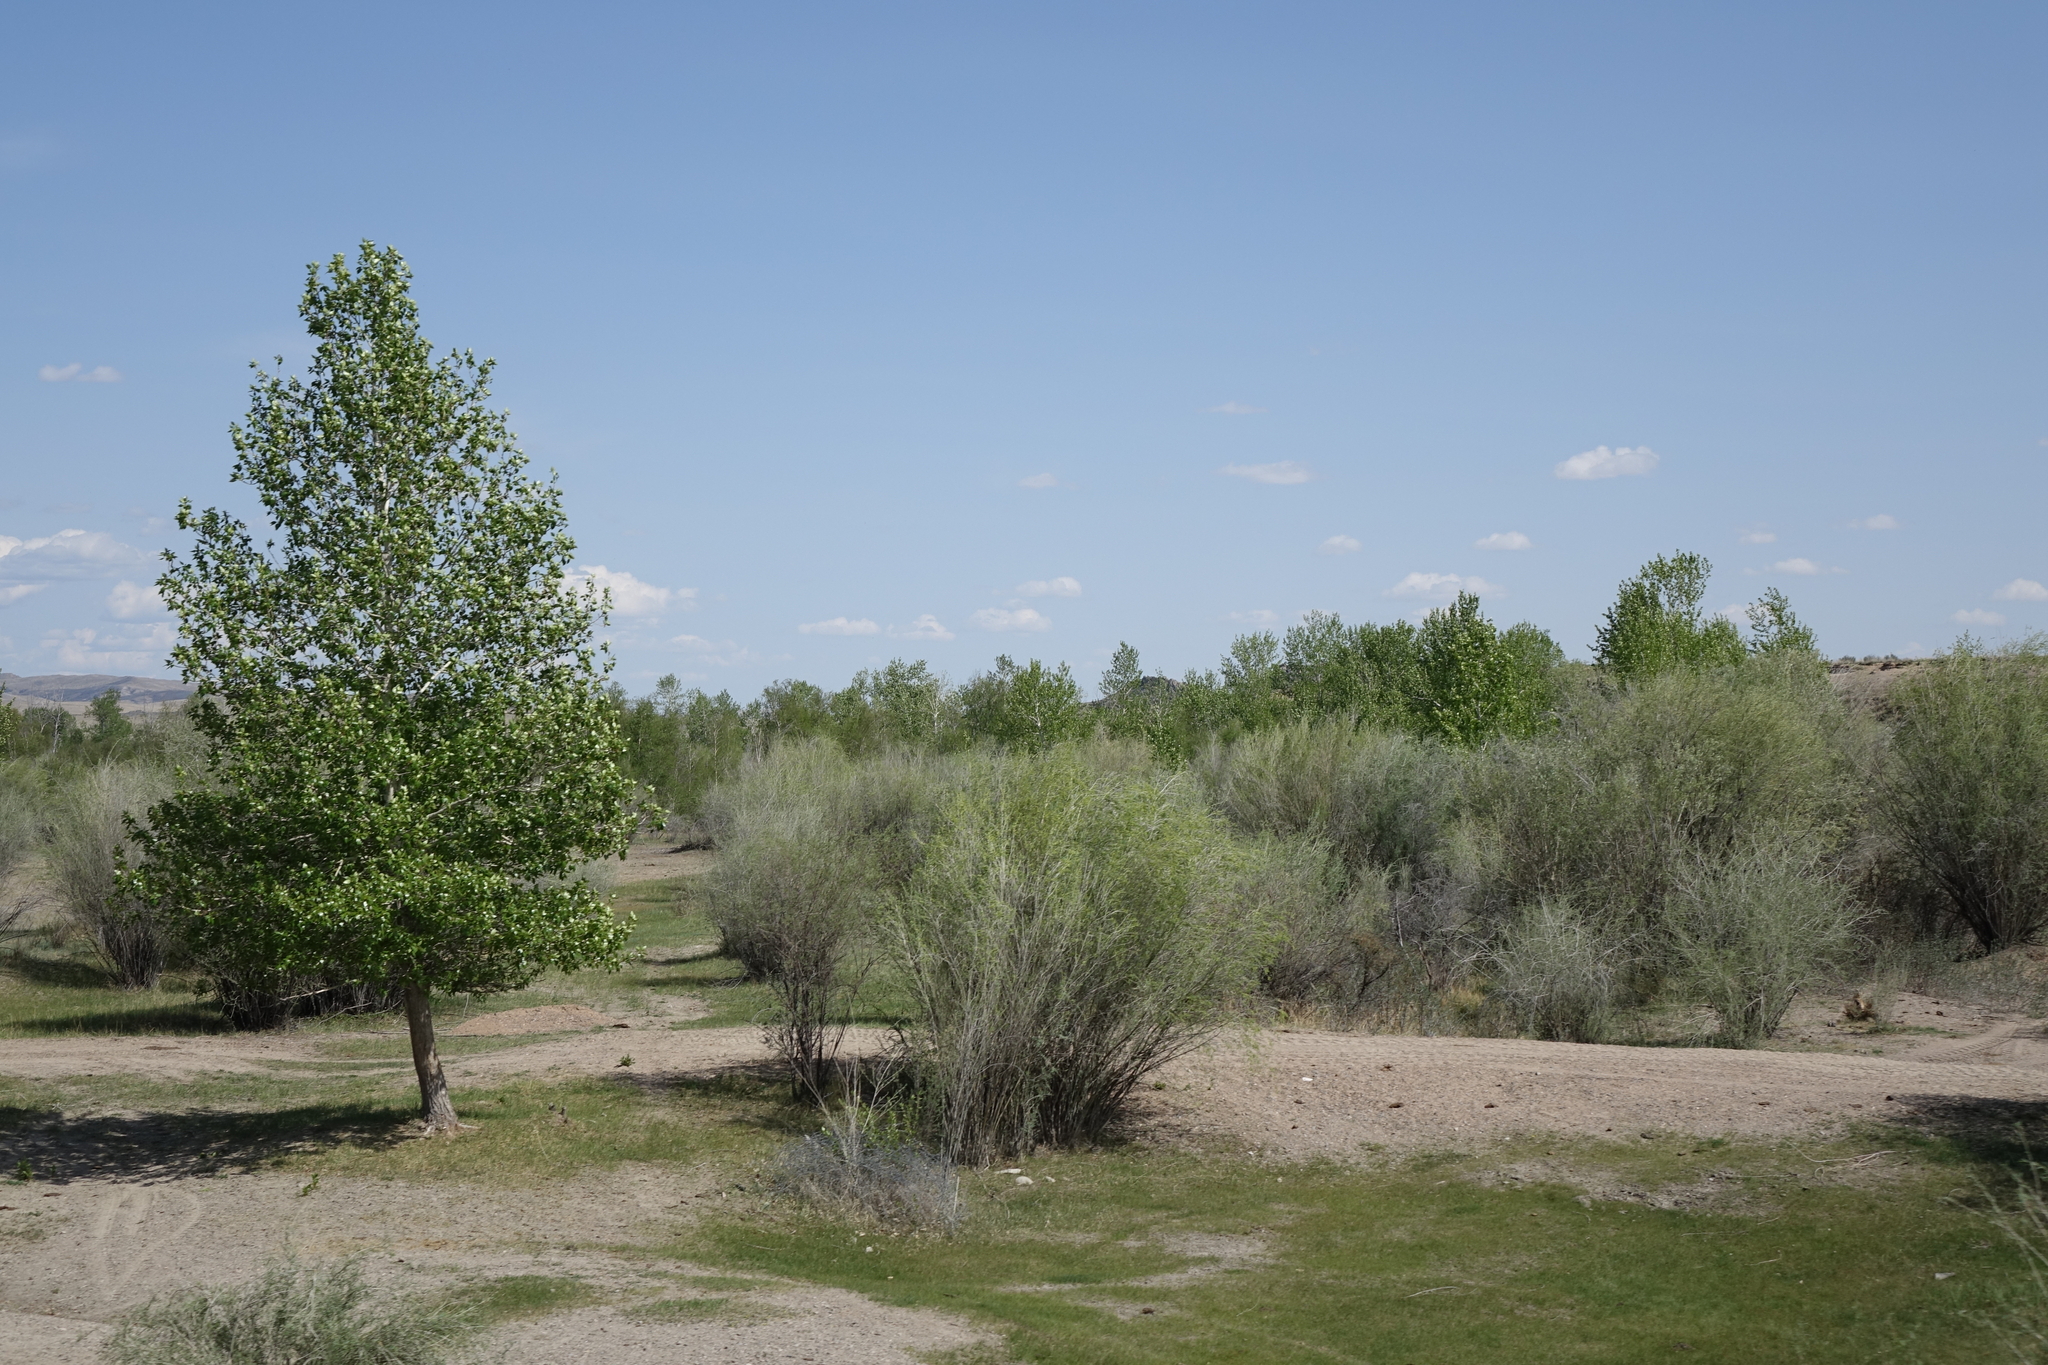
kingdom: Plantae
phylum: Tracheophyta
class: Magnoliopsida
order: Malpighiales
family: Salicaceae
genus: Salix
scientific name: Salix ledebouriana
